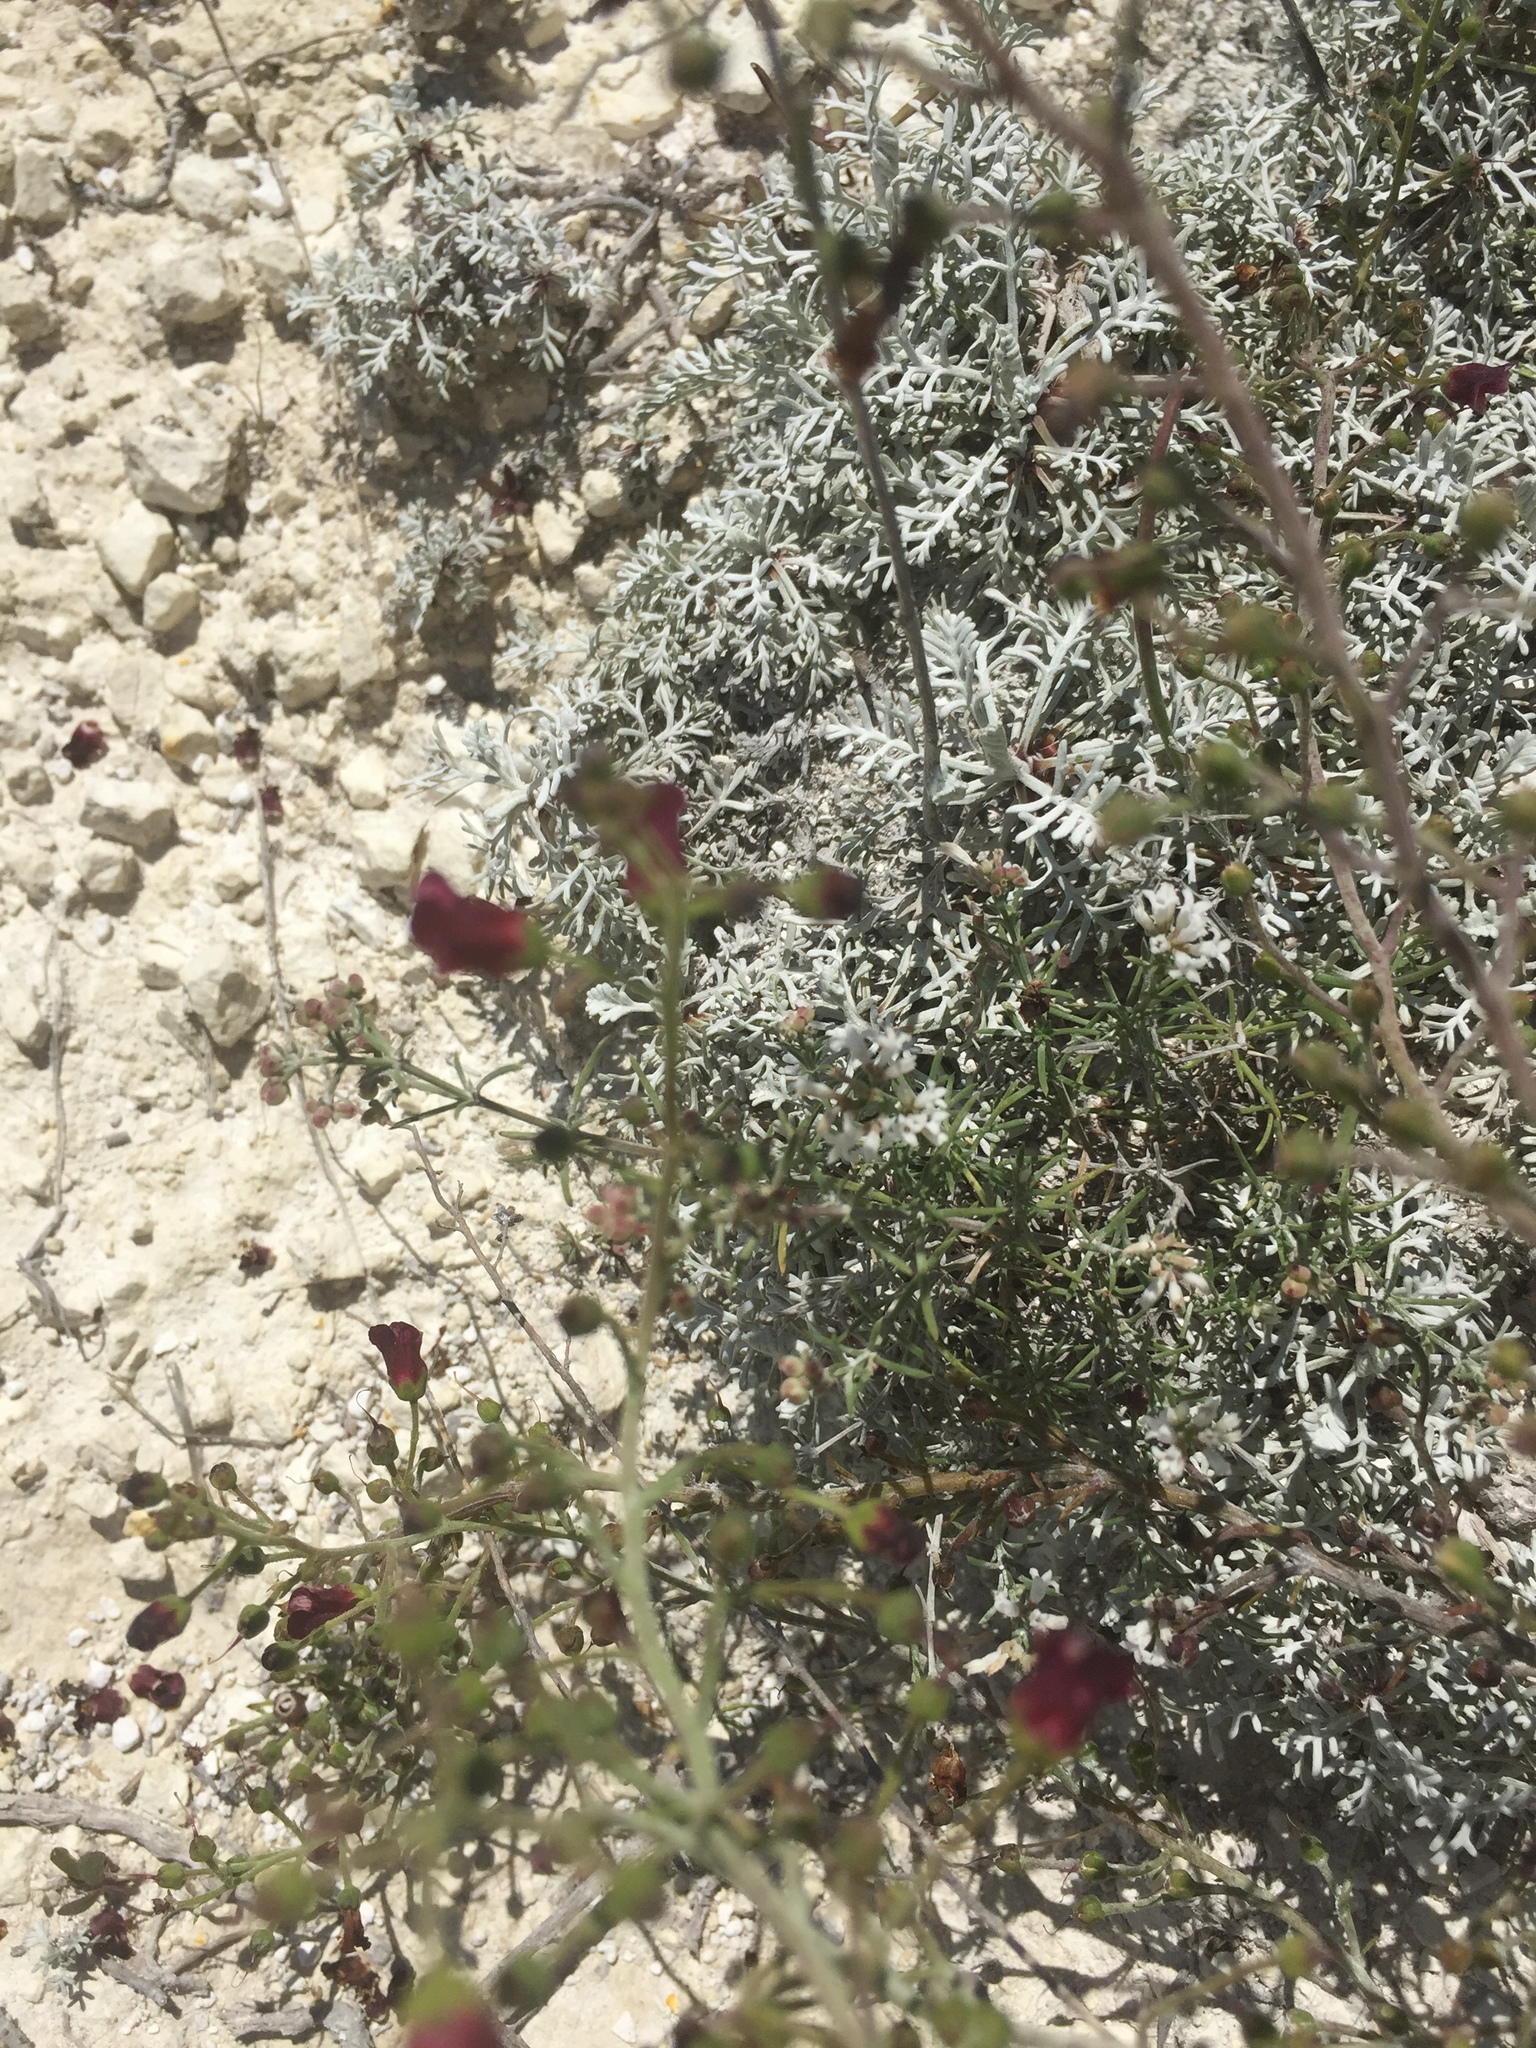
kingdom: Plantae
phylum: Tracheophyta
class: Magnoliopsida
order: Lamiales
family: Scrophulariaceae
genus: Scrophularia
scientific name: Scrophularia cretacea
